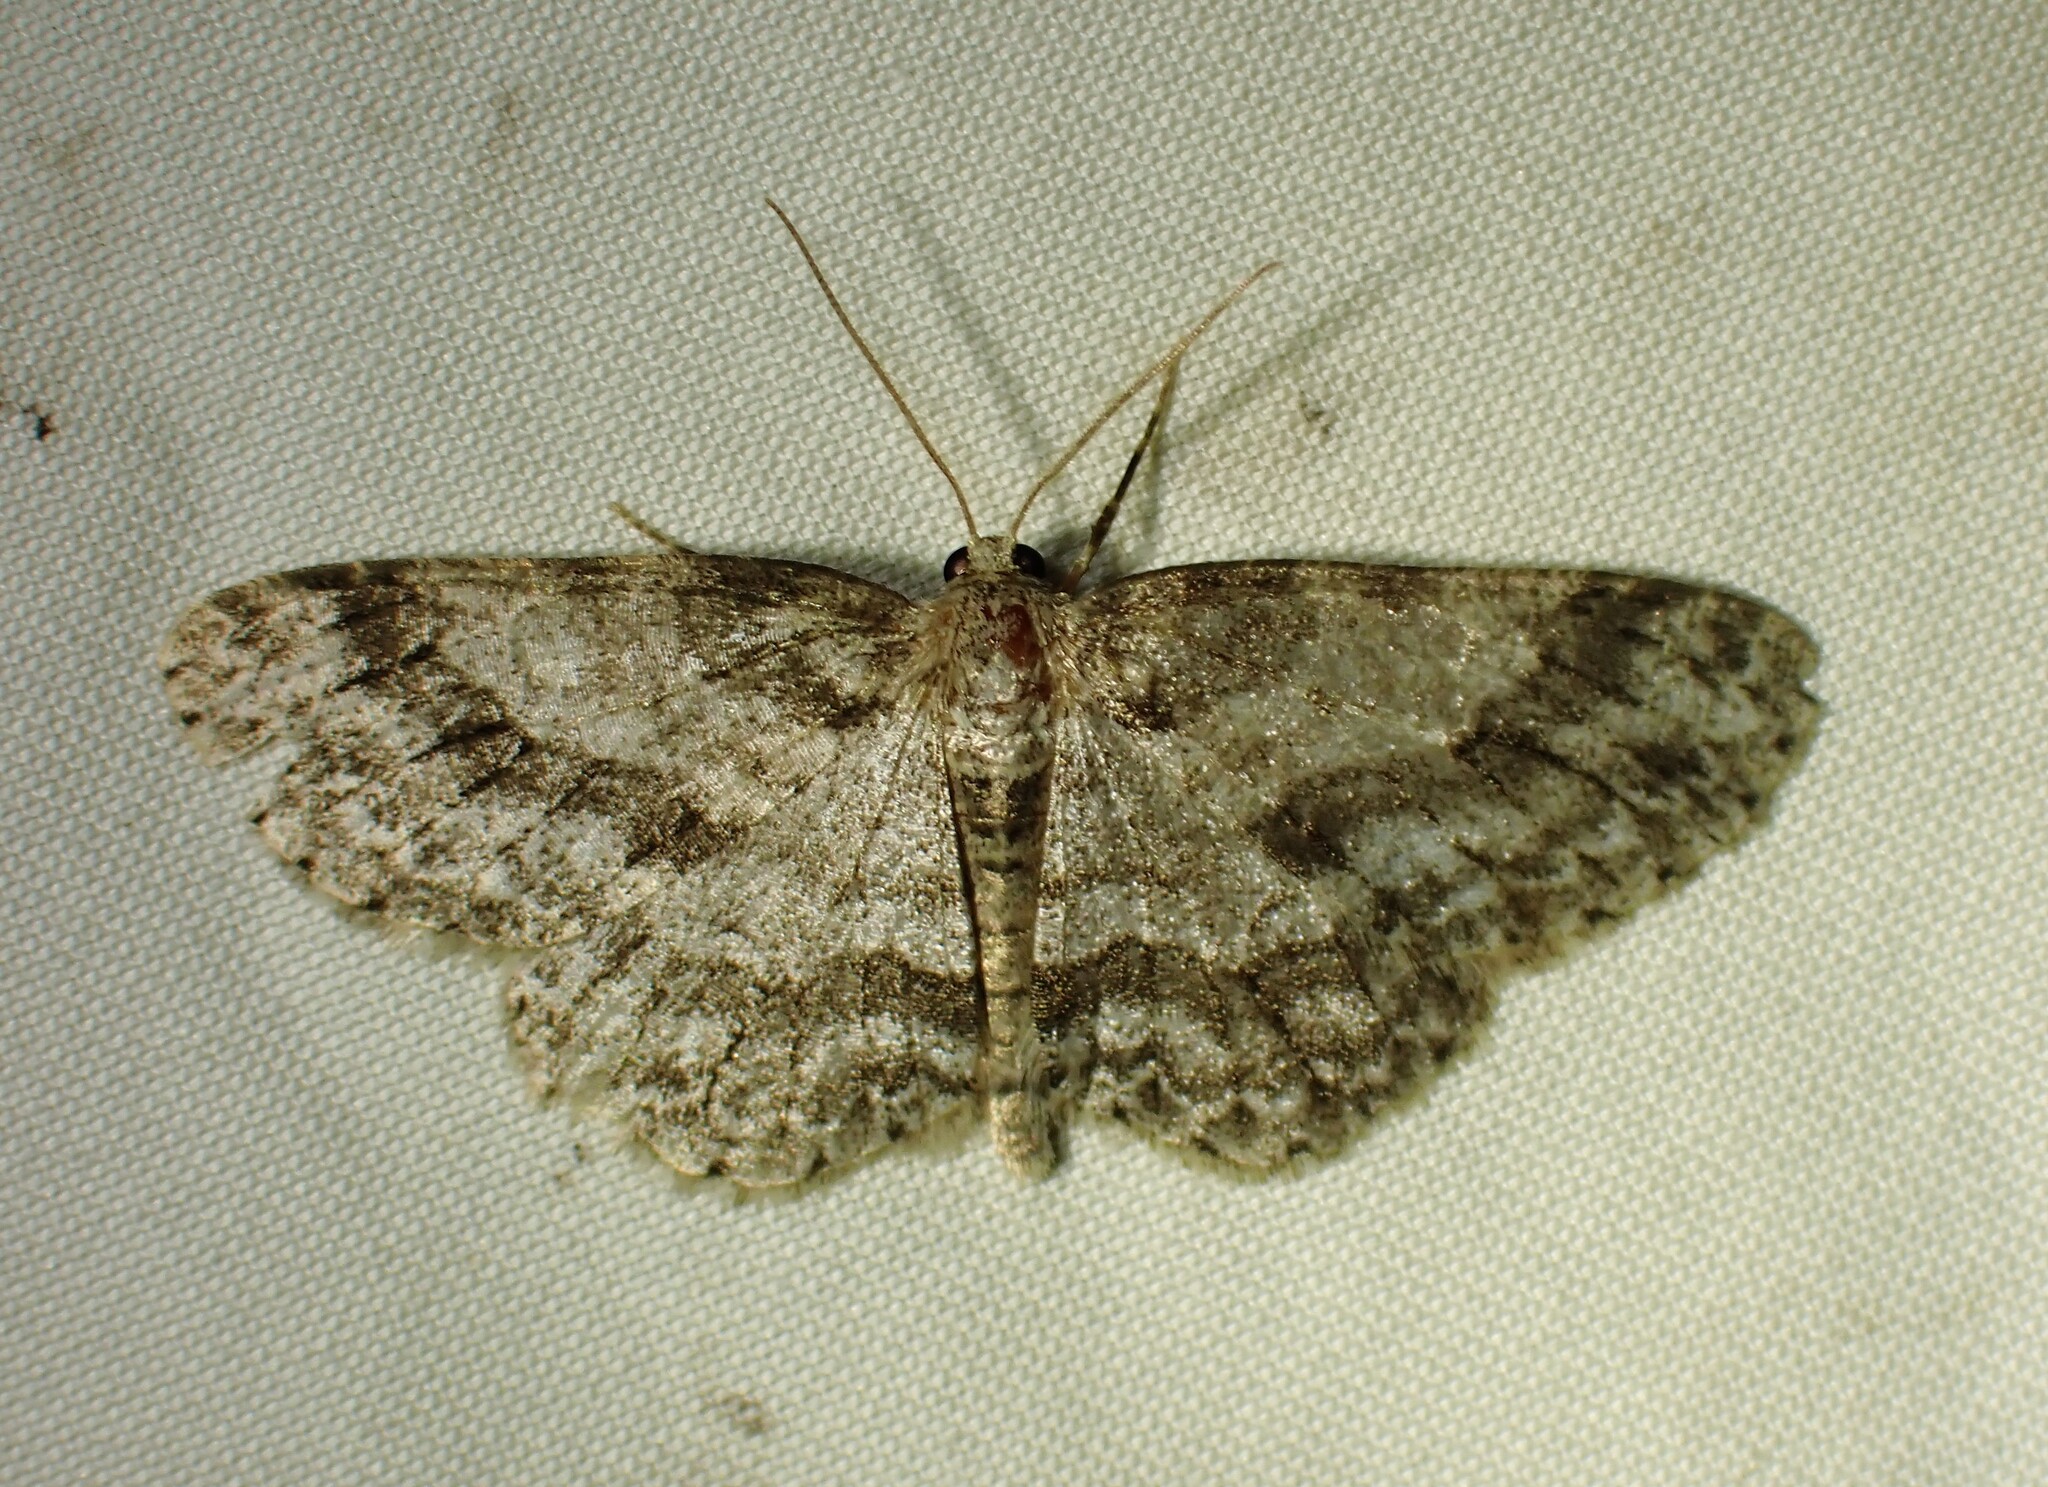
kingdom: Animalia
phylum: Arthropoda
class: Insecta
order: Lepidoptera
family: Geometridae
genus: Ectropis
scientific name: Ectropis crepuscularia
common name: Engrailed
